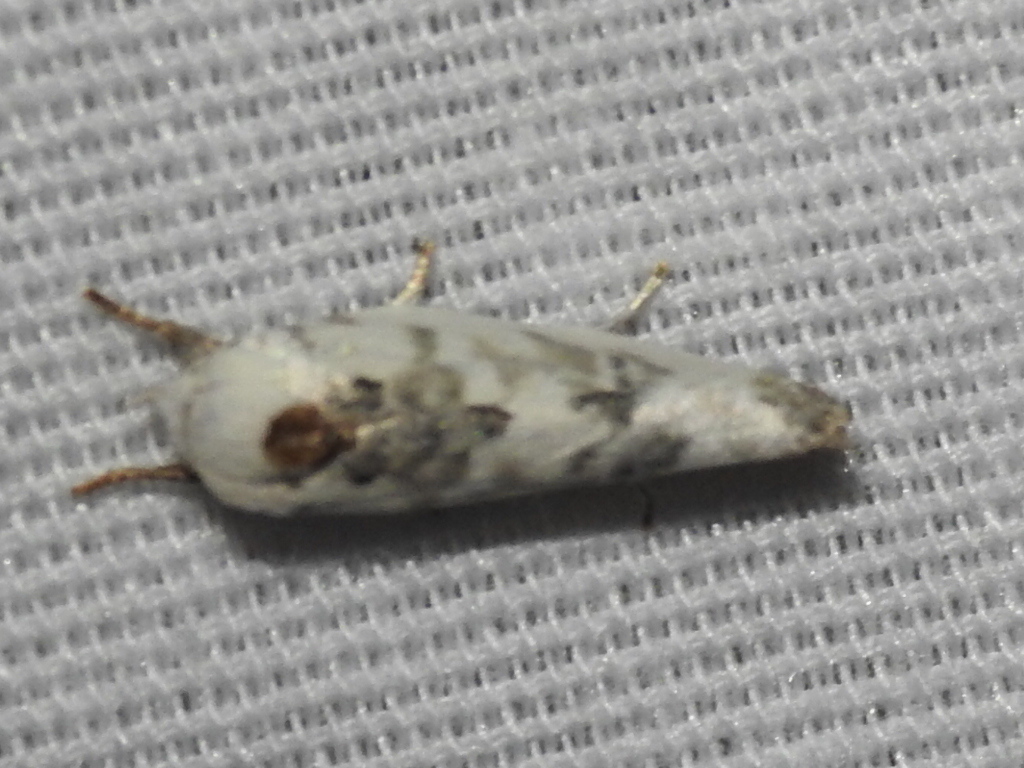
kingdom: Animalia
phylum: Arthropoda
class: Insecta
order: Lepidoptera
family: Depressariidae
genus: Antaeotricha
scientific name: Antaeotricha leucillana
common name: Pale gray bird-dropping moth
